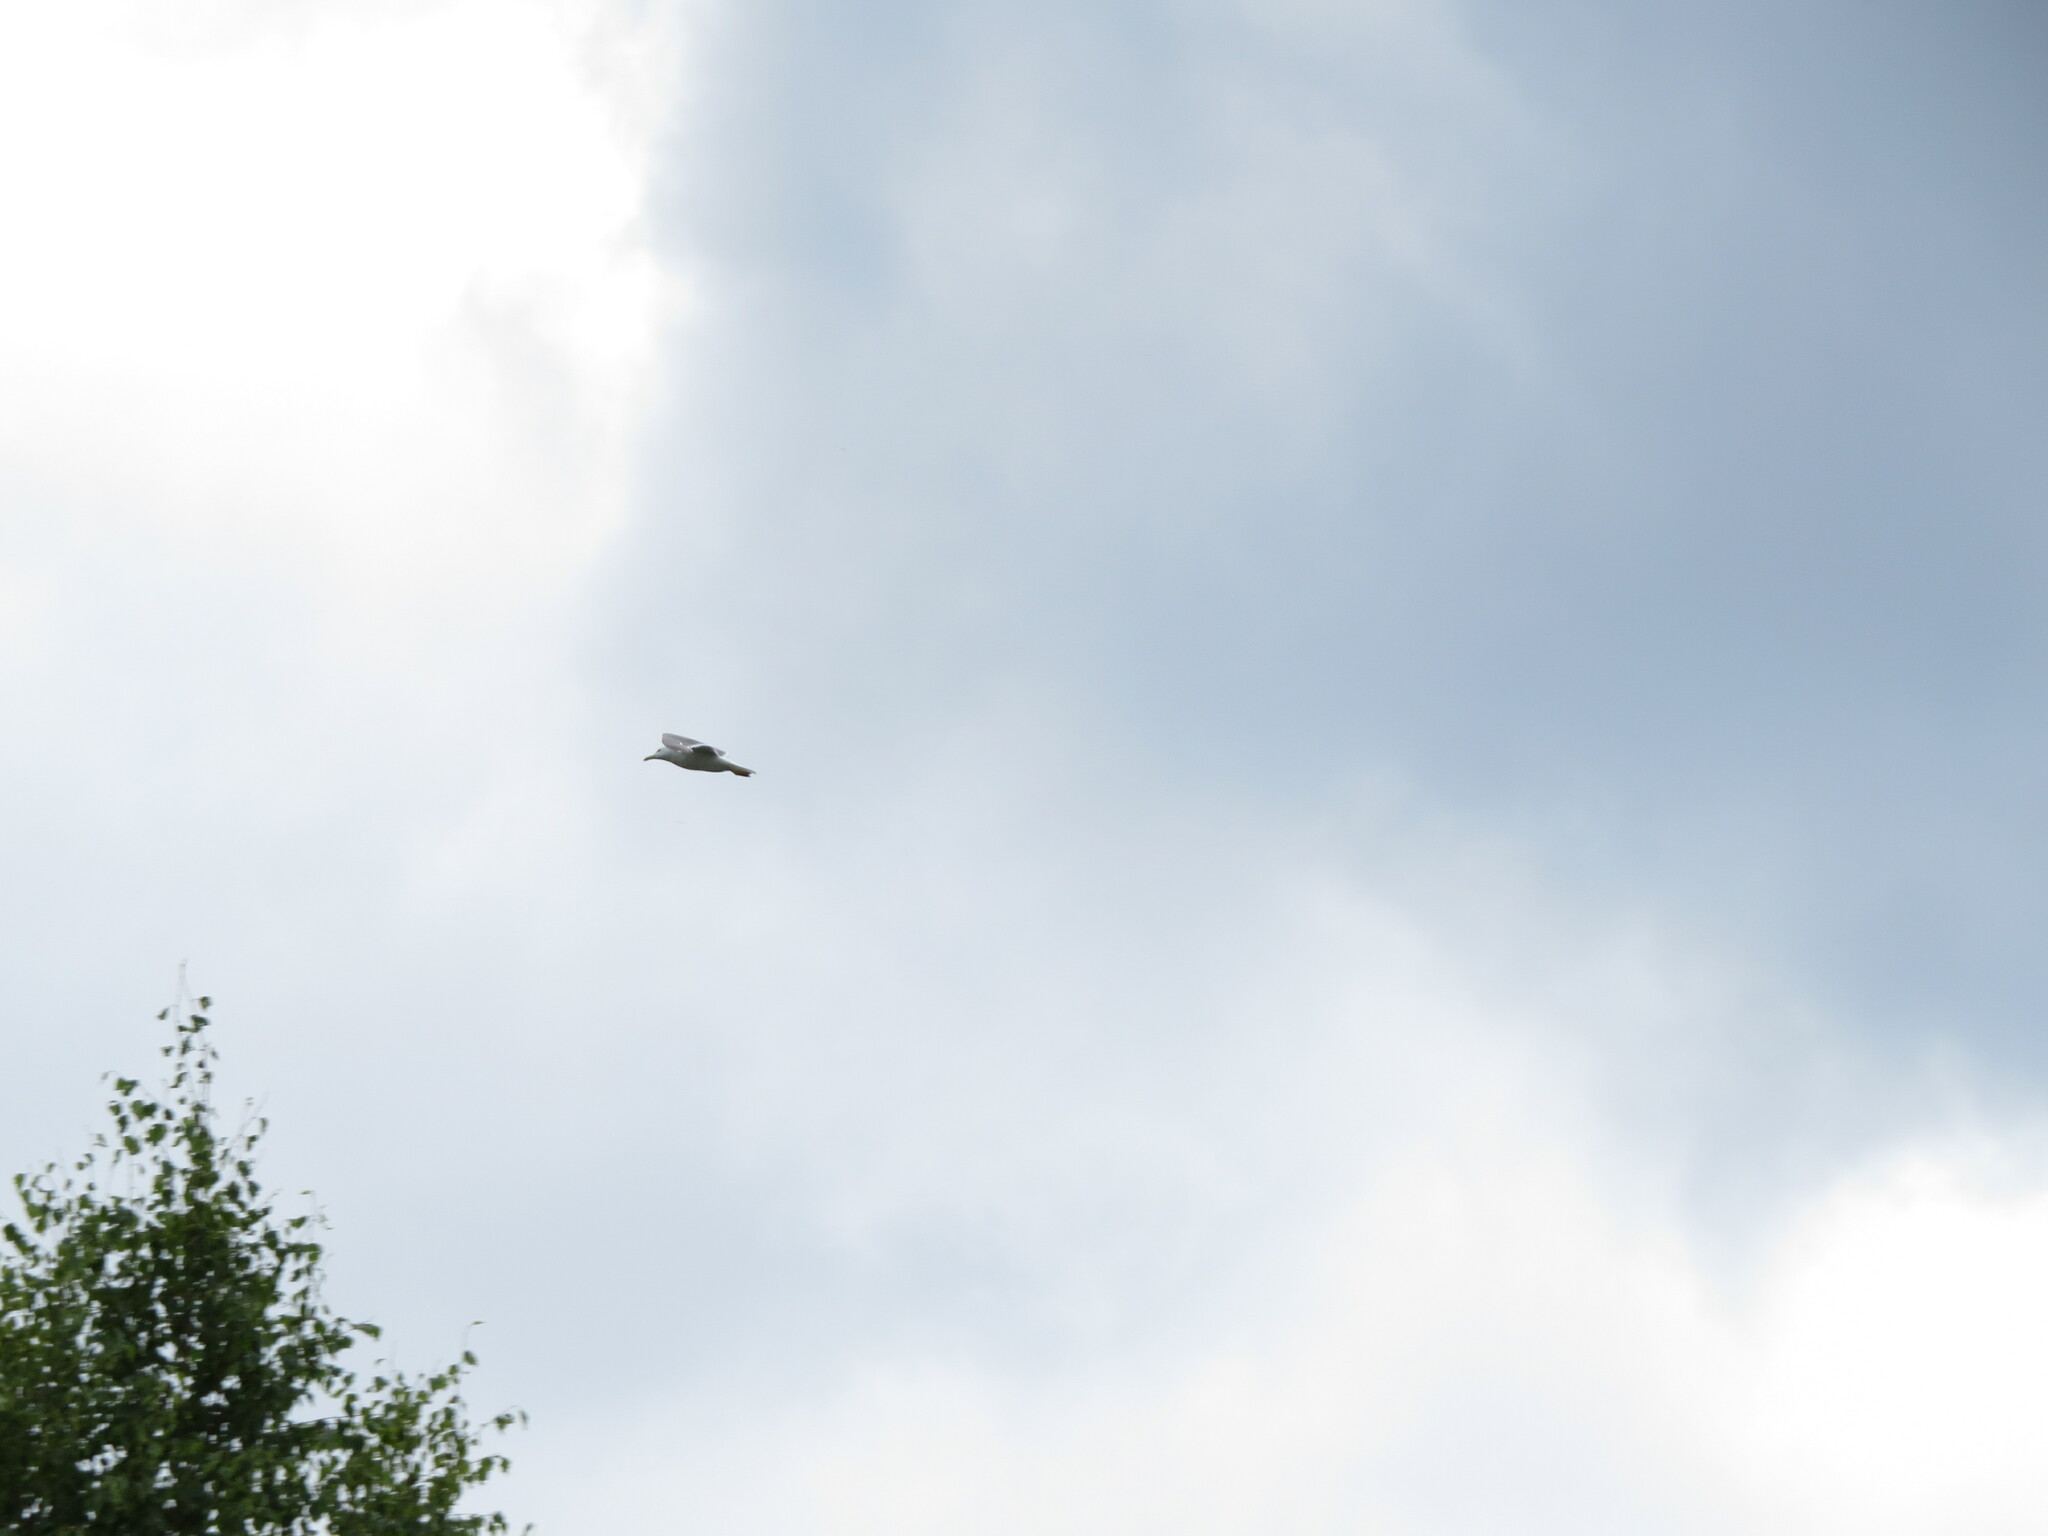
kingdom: Animalia
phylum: Chordata
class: Aves
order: Charadriiformes
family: Laridae
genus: Larus
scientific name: Larus fuscus
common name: Lesser black-backed gull
